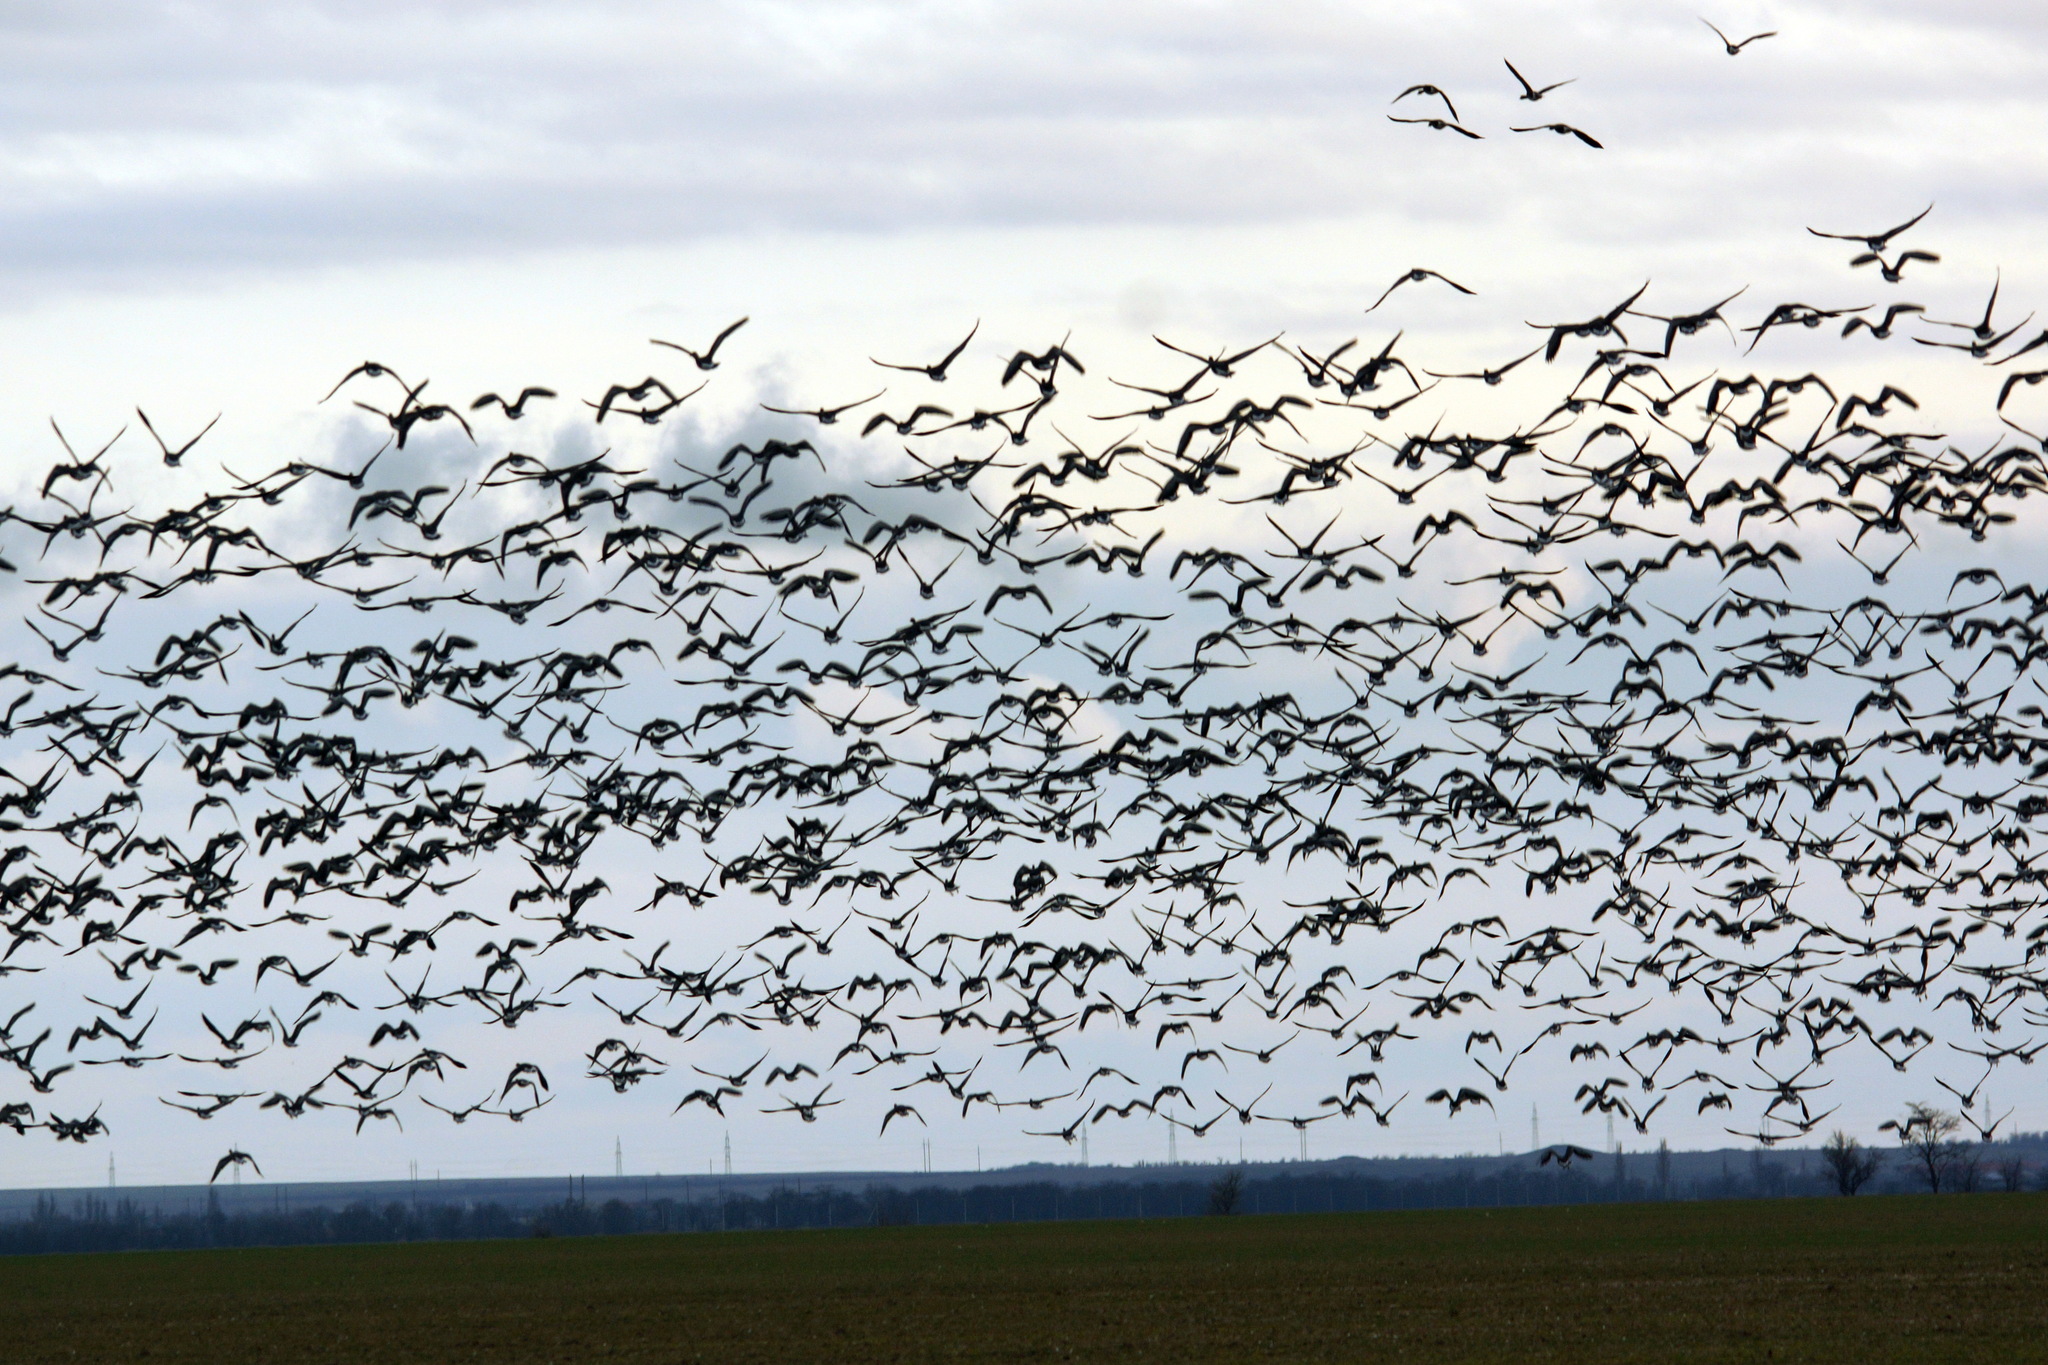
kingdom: Animalia
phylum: Chordata
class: Aves
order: Anseriformes
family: Anatidae
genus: Anser
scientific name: Anser albifrons
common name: Greater white-fronted goose
